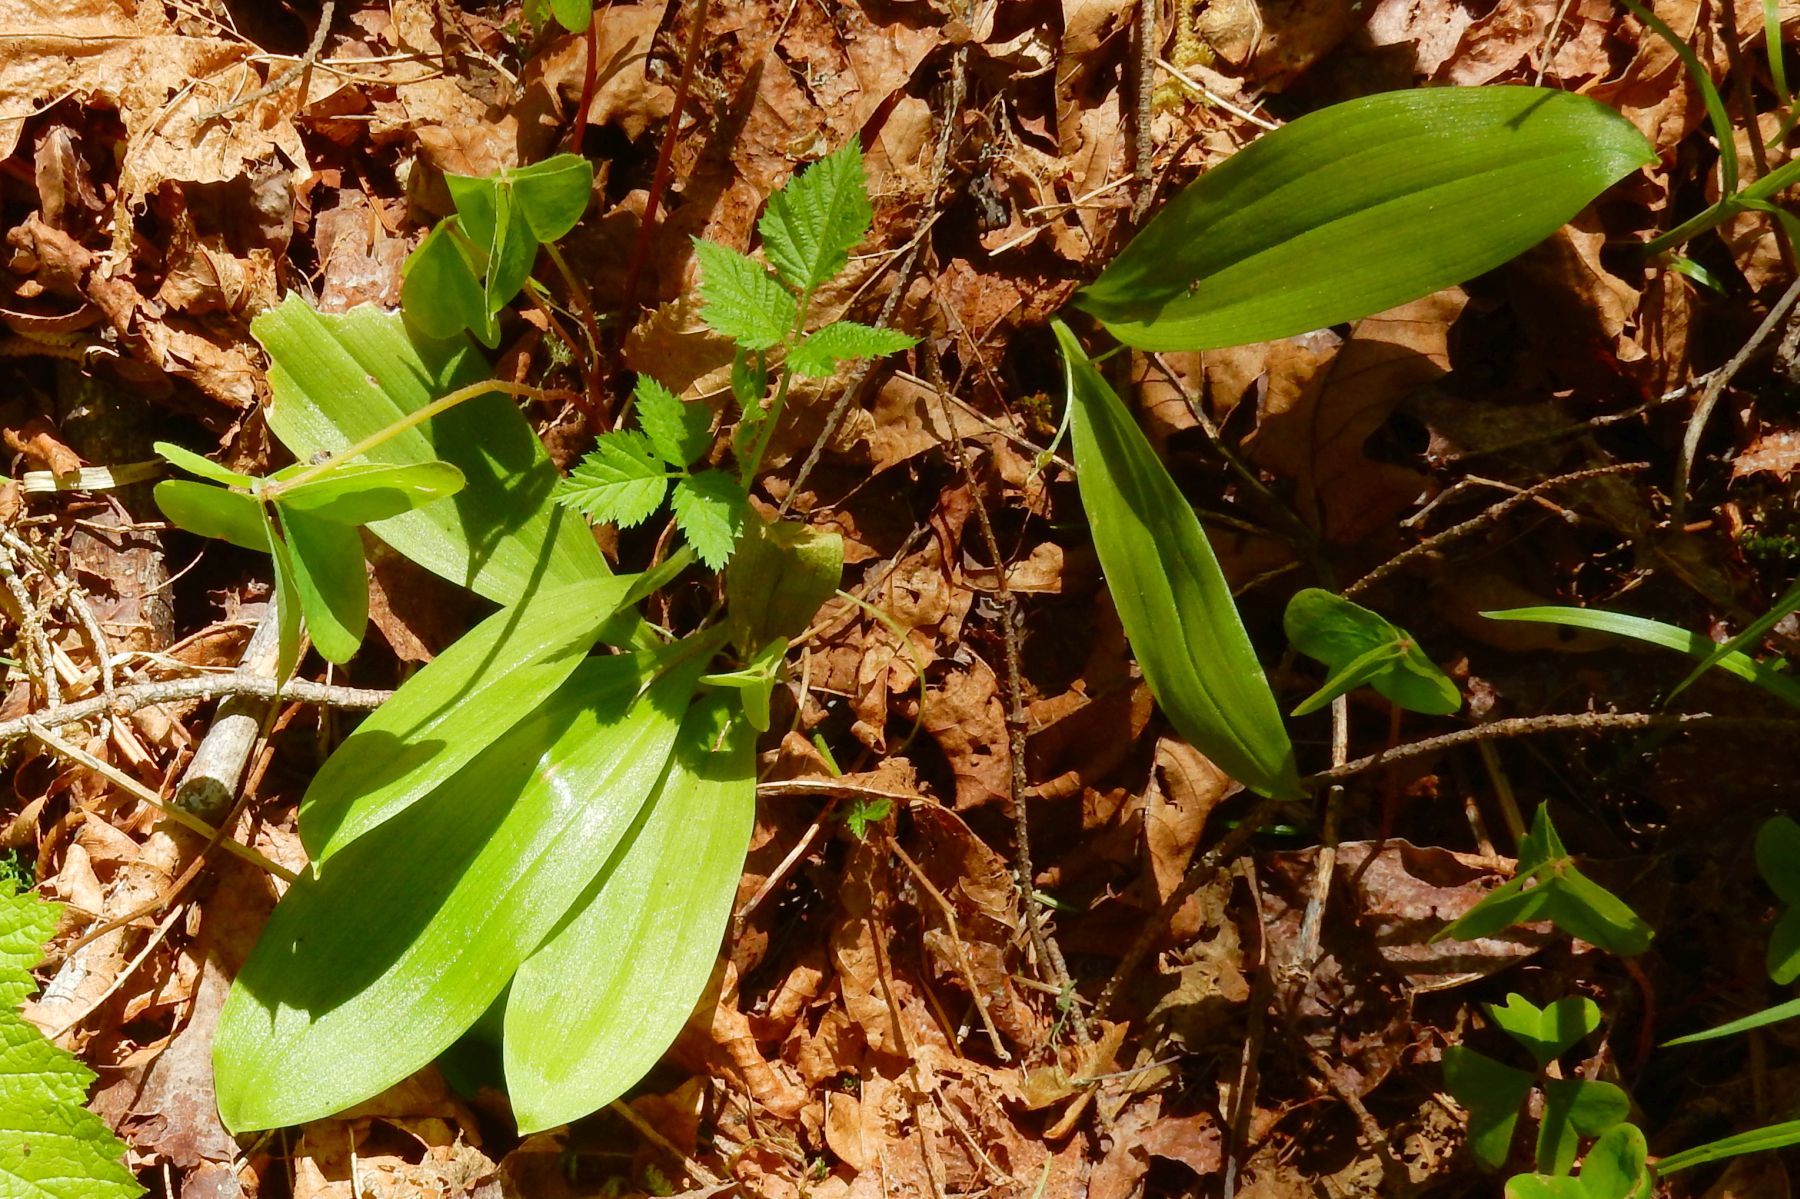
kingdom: Plantae
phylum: Tracheophyta
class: Liliopsida
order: Liliales
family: Liliaceae
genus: Scoliopus
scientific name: Scoliopus hallii
